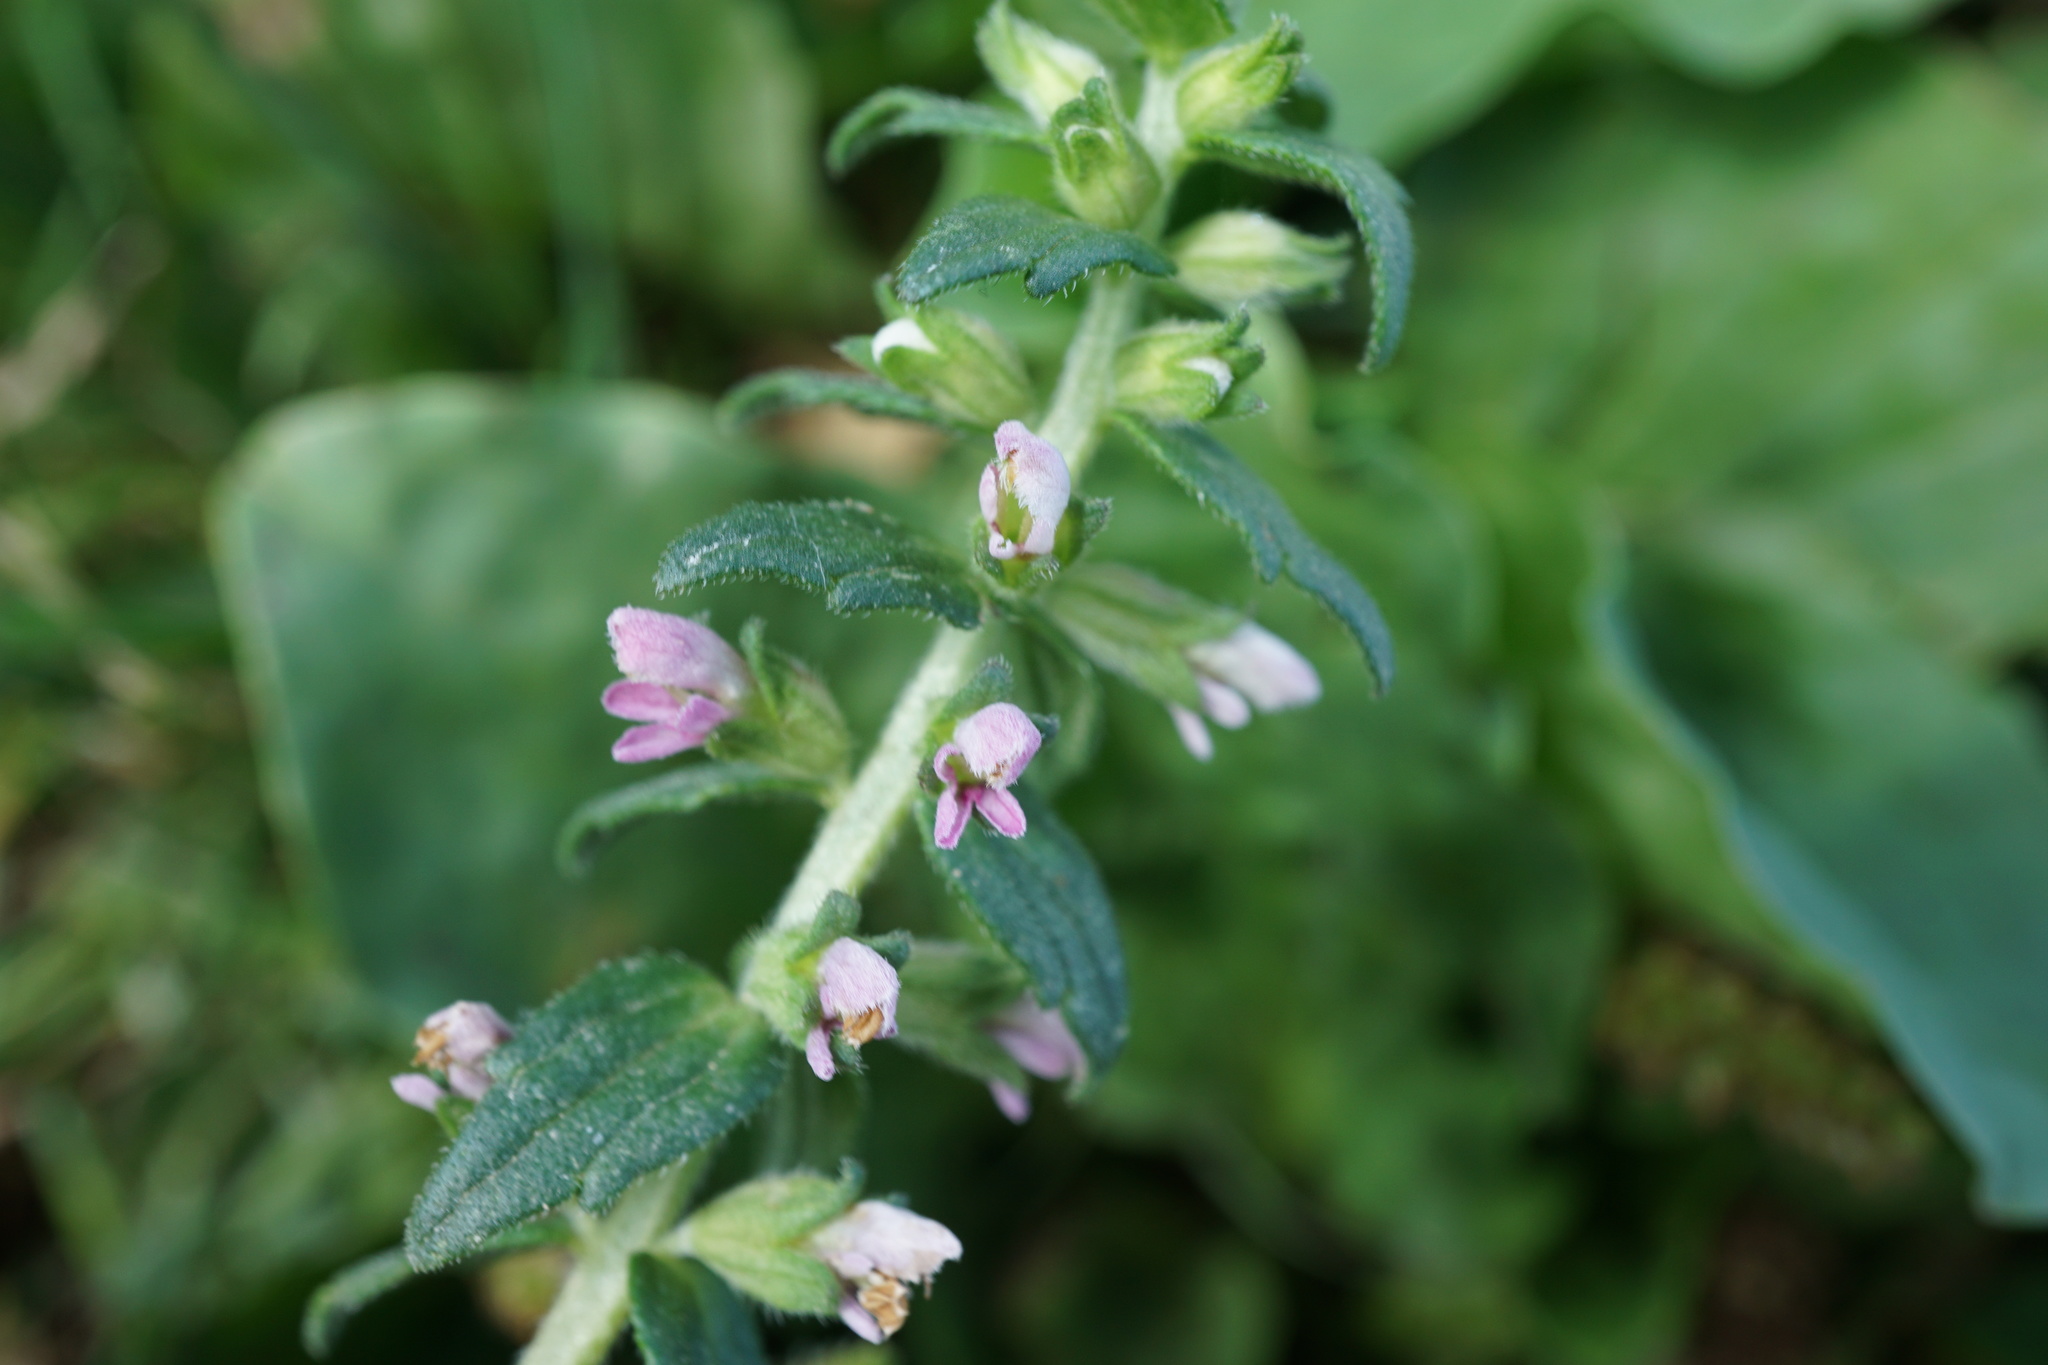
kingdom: Plantae
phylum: Tracheophyta
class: Magnoliopsida
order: Lamiales
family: Orobanchaceae
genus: Odontites
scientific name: Odontites vernus
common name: Red bartsia
